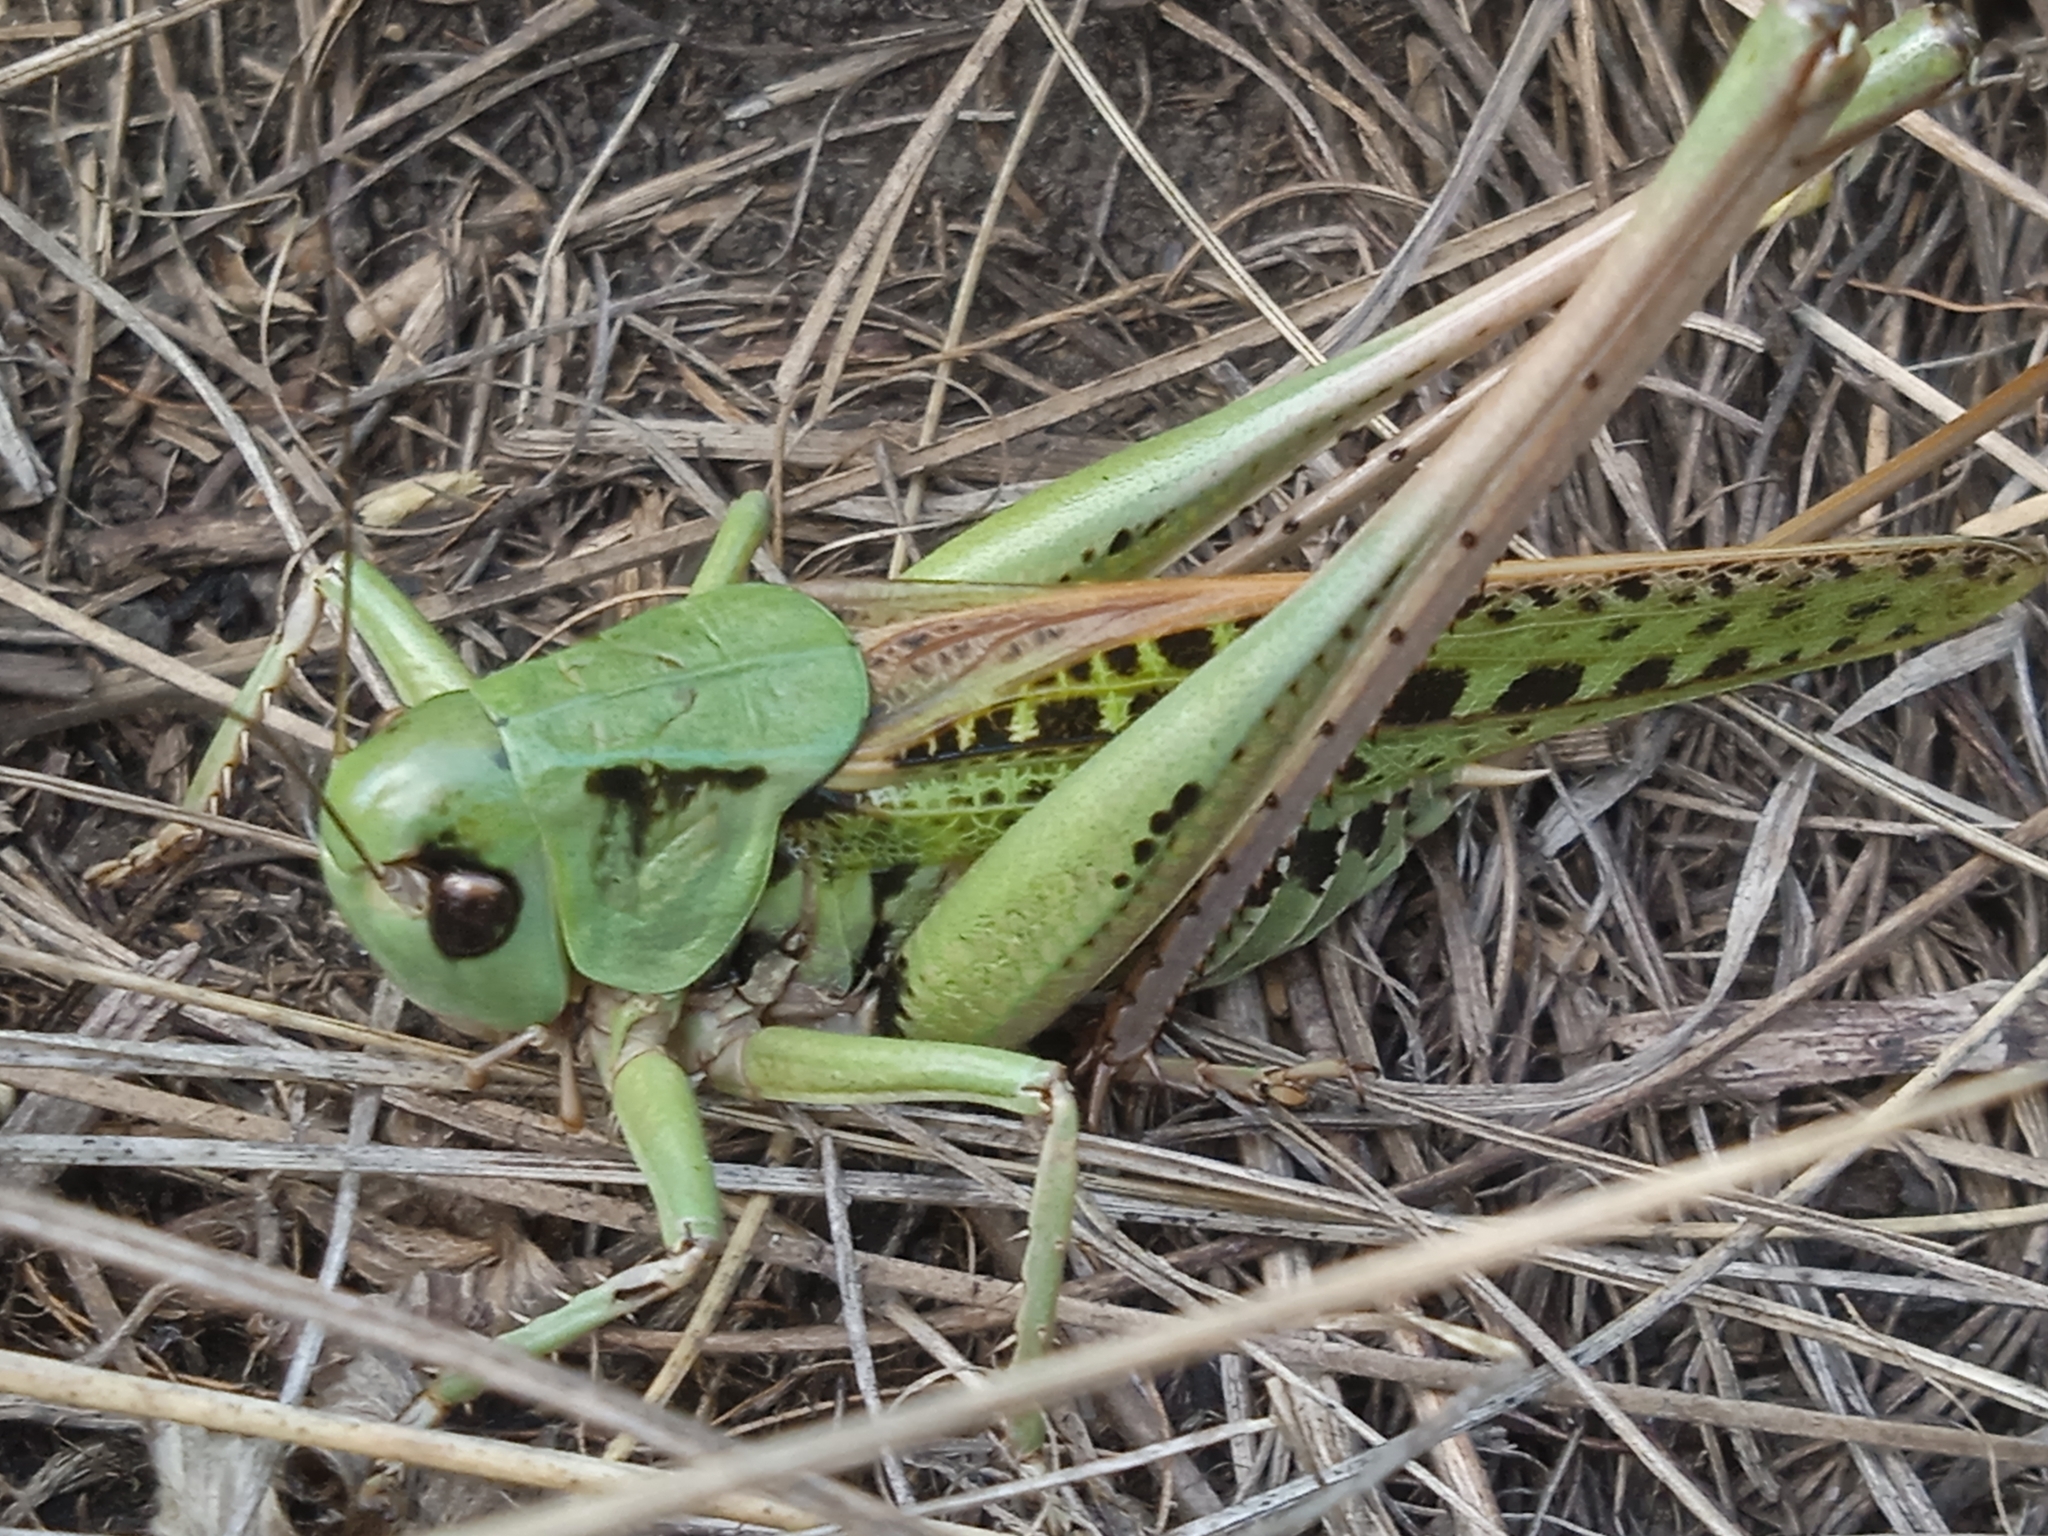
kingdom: Animalia
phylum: Arthropoda
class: Insecta
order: Orthoptera
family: Tettigoniidae
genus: Decticus
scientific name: Decticus verrucivorus
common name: Wart-biter
